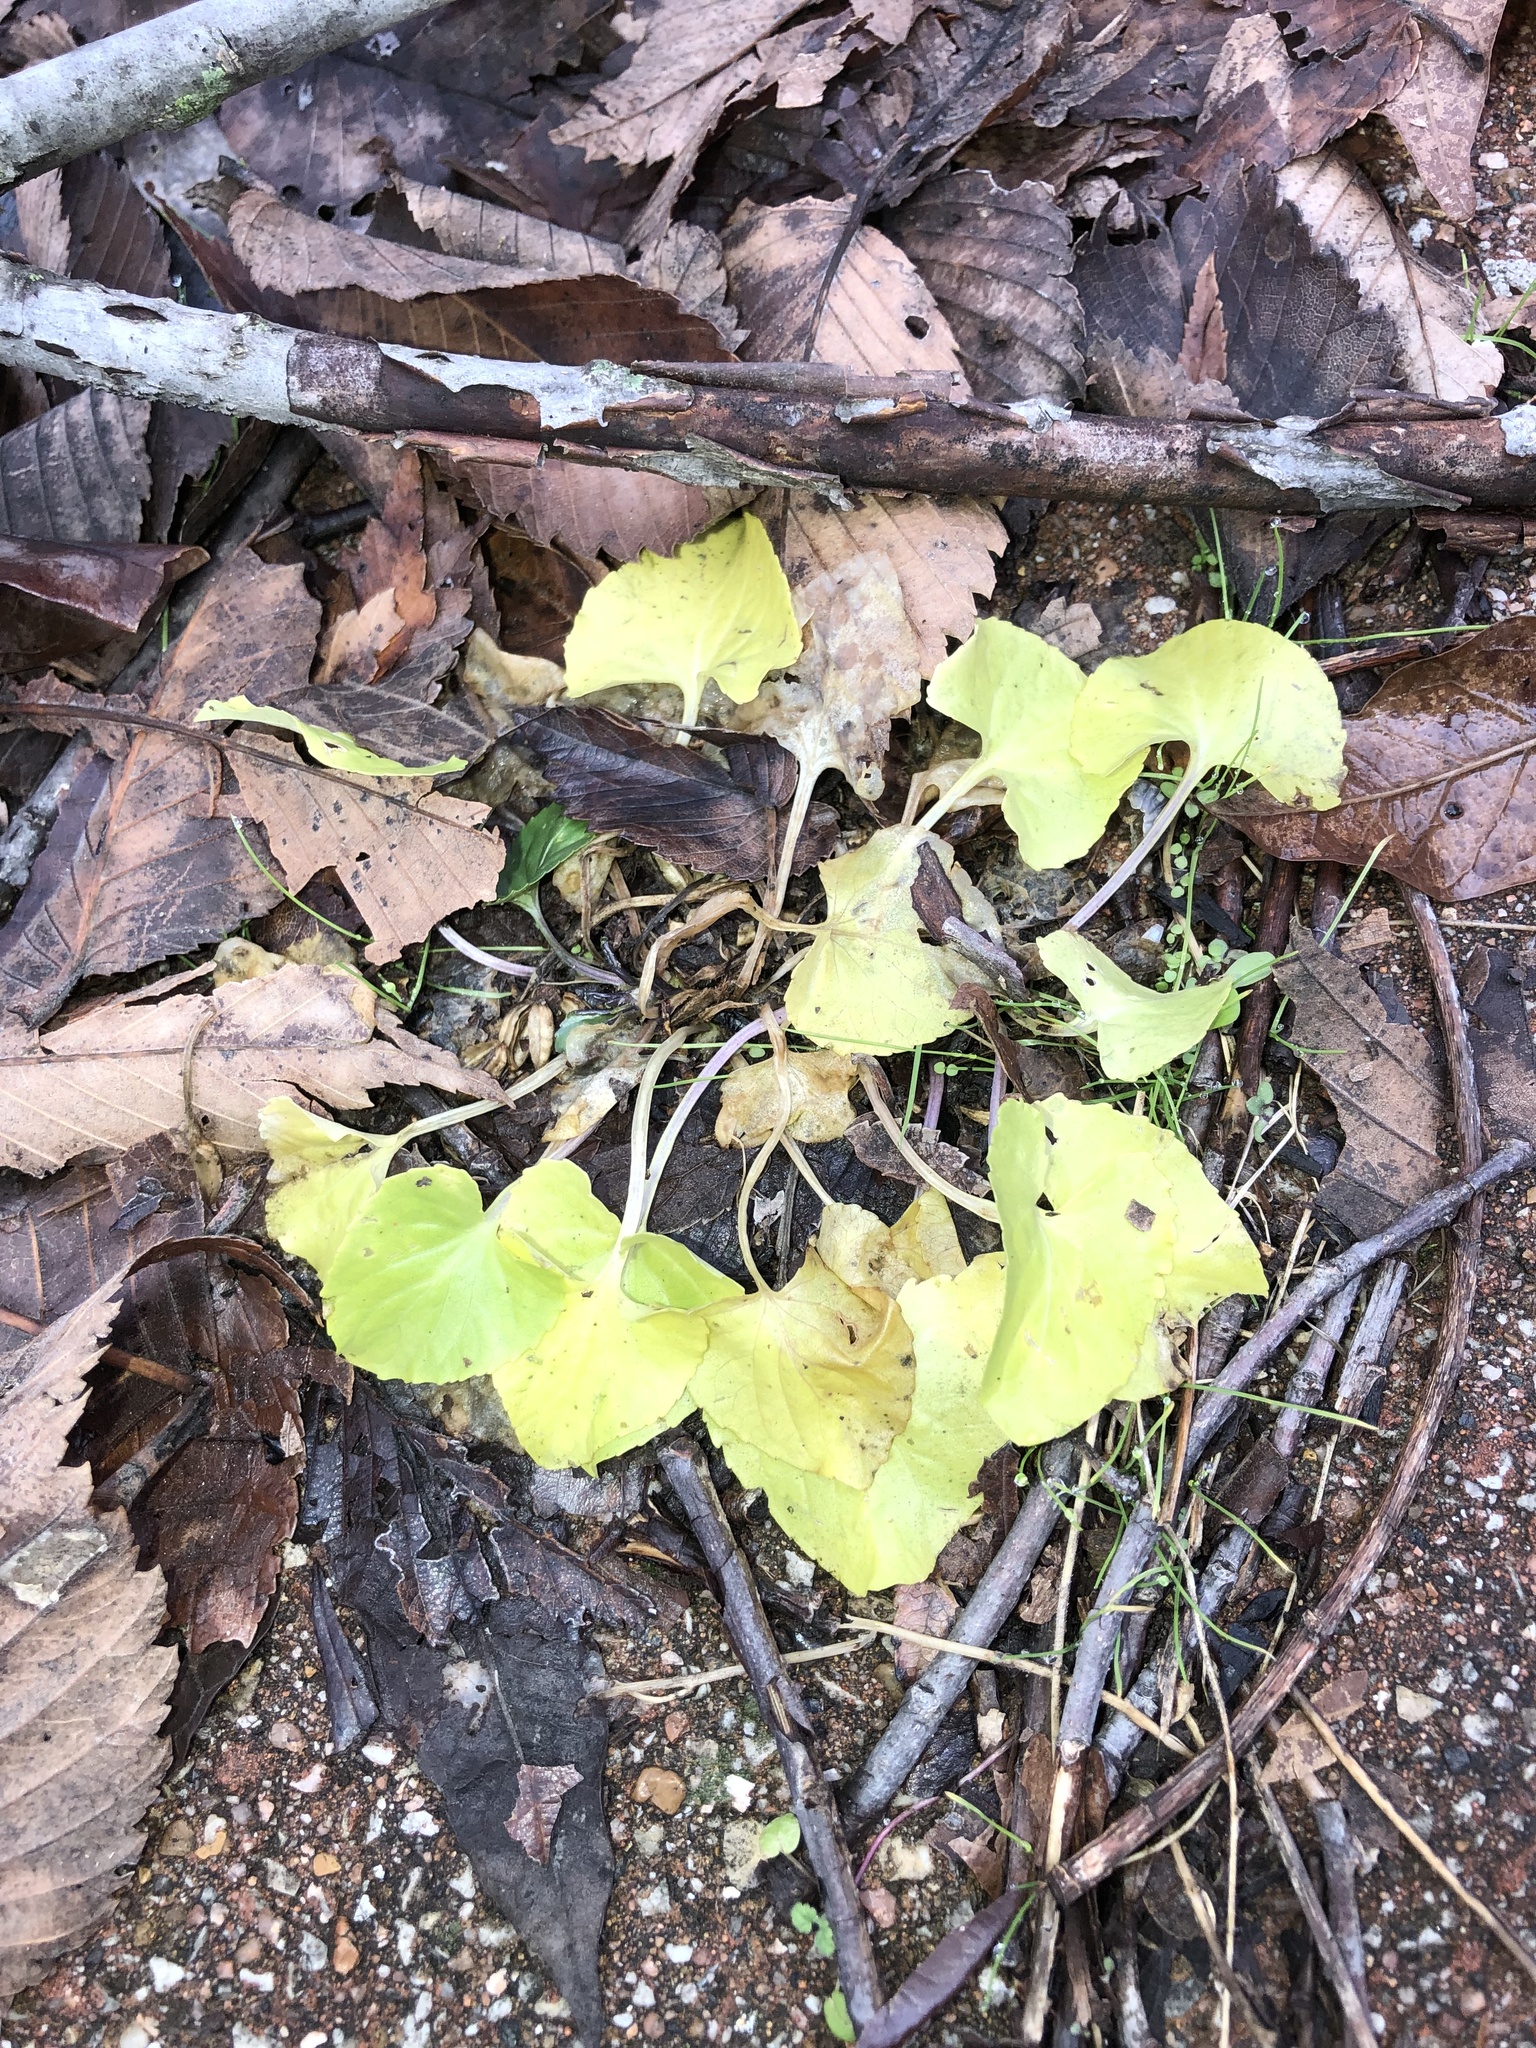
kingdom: Plantae
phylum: Tracheophyta
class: Magnoliopsida
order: Malpighiales
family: Violaceae
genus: Viola
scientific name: Viola sororia
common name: Dooryard violet
